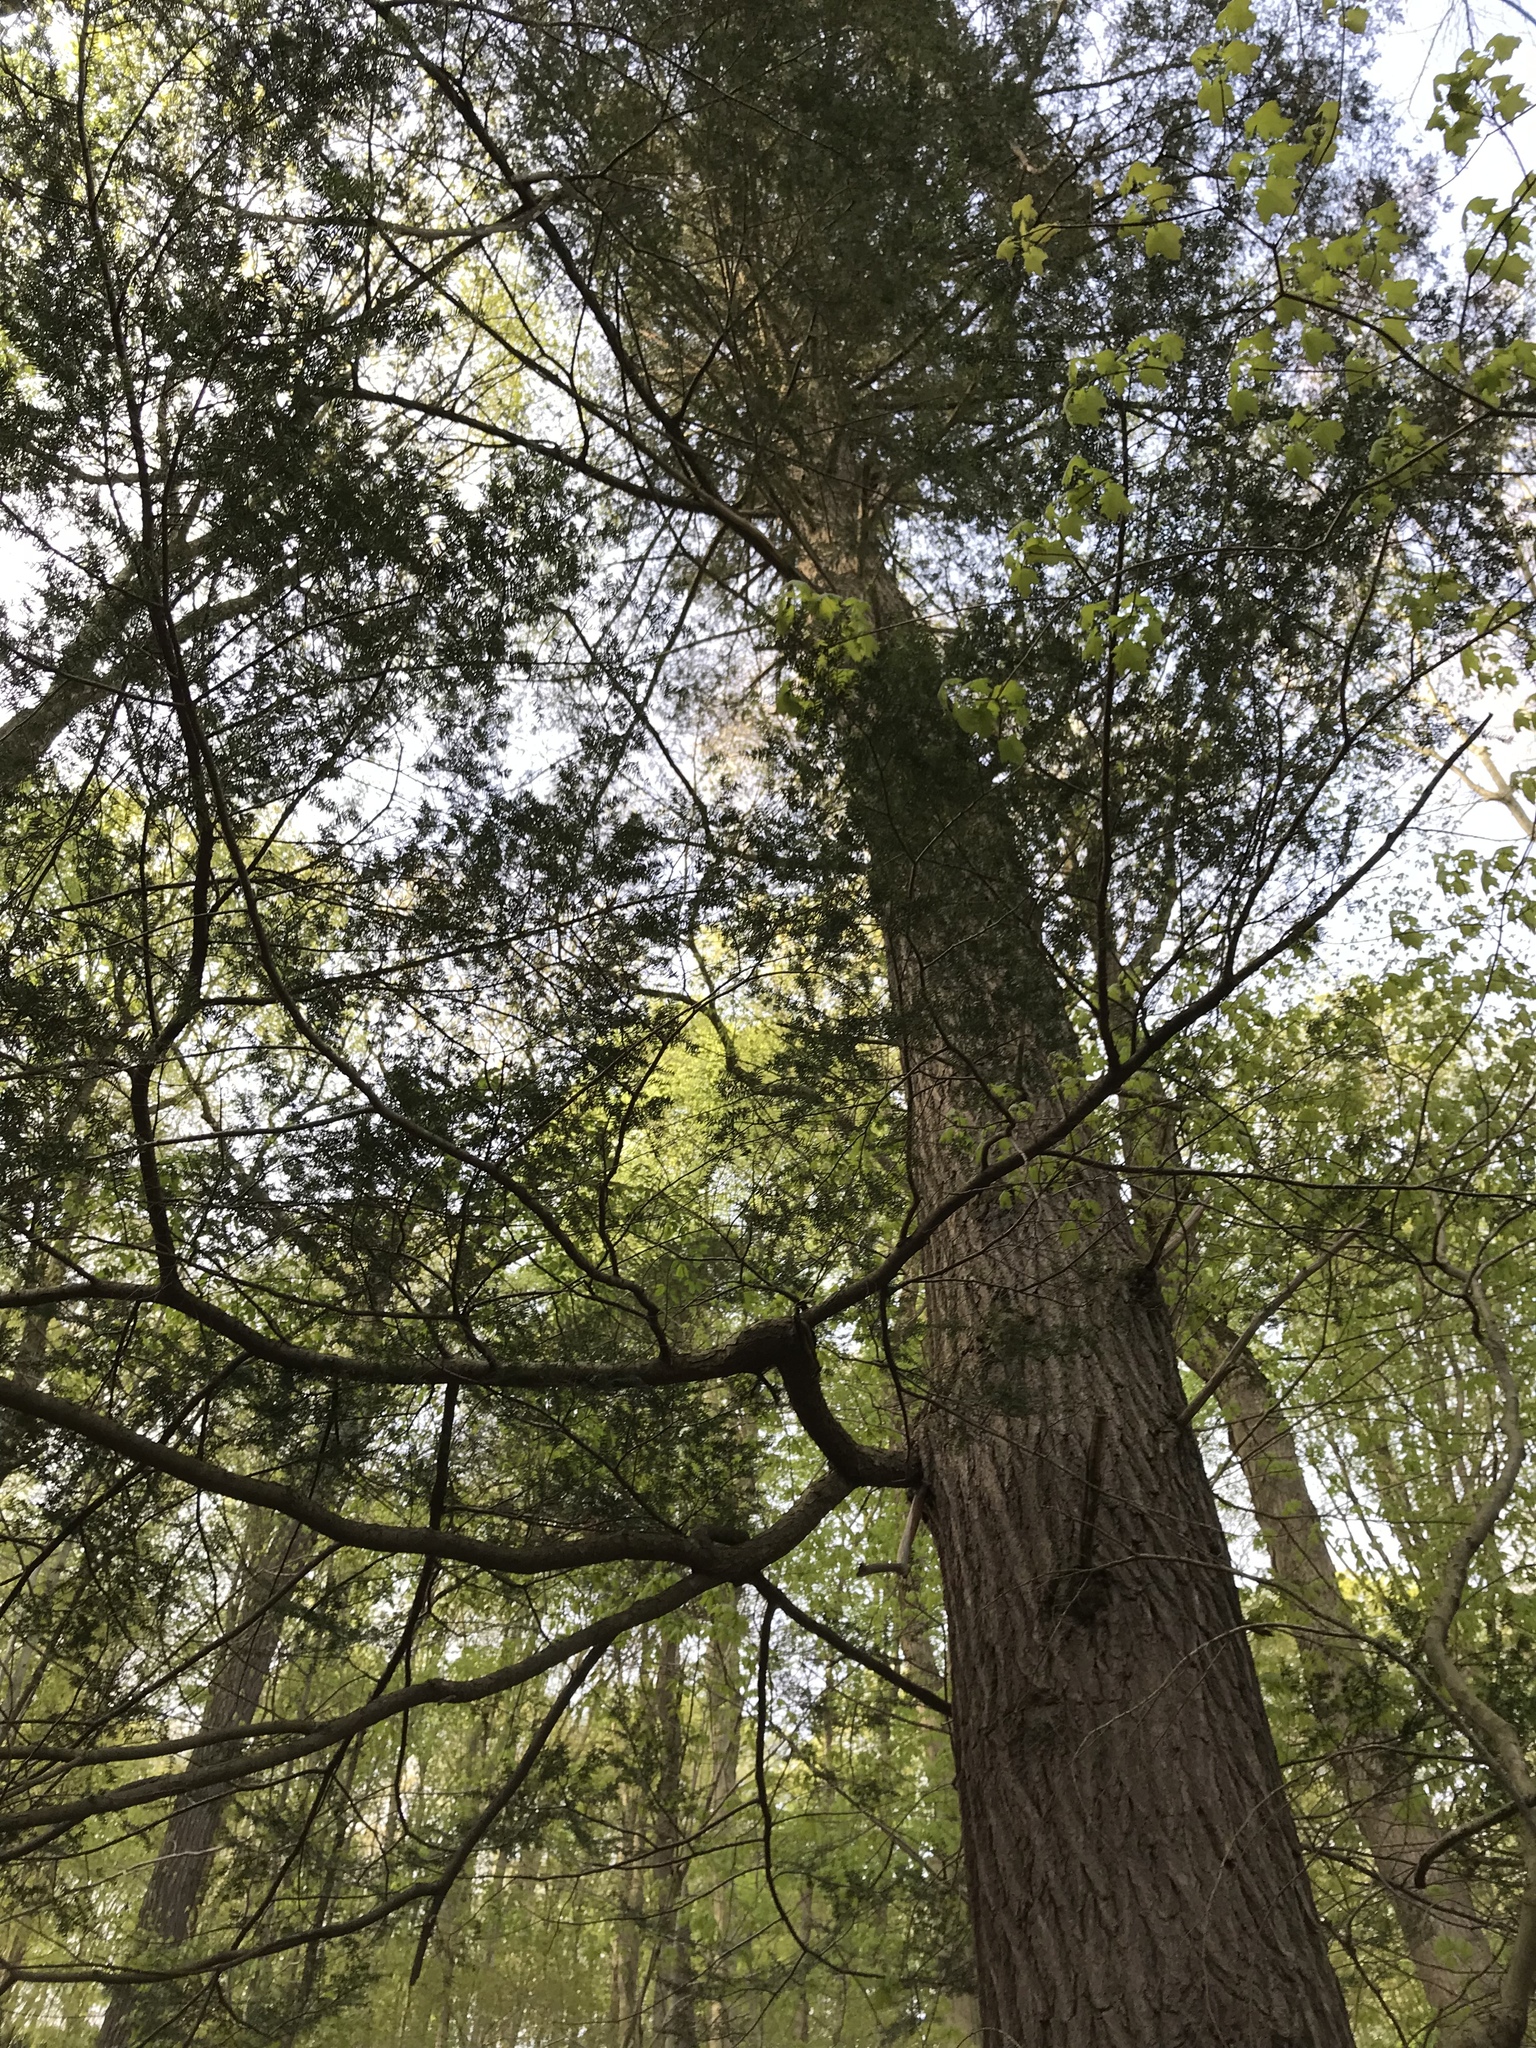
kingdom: Plantae
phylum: Tracheophyta
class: Pinopsida
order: Pinales
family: Pinaceae
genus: Tsuga
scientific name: Tsuga canadensis
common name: Eastern hemlock
